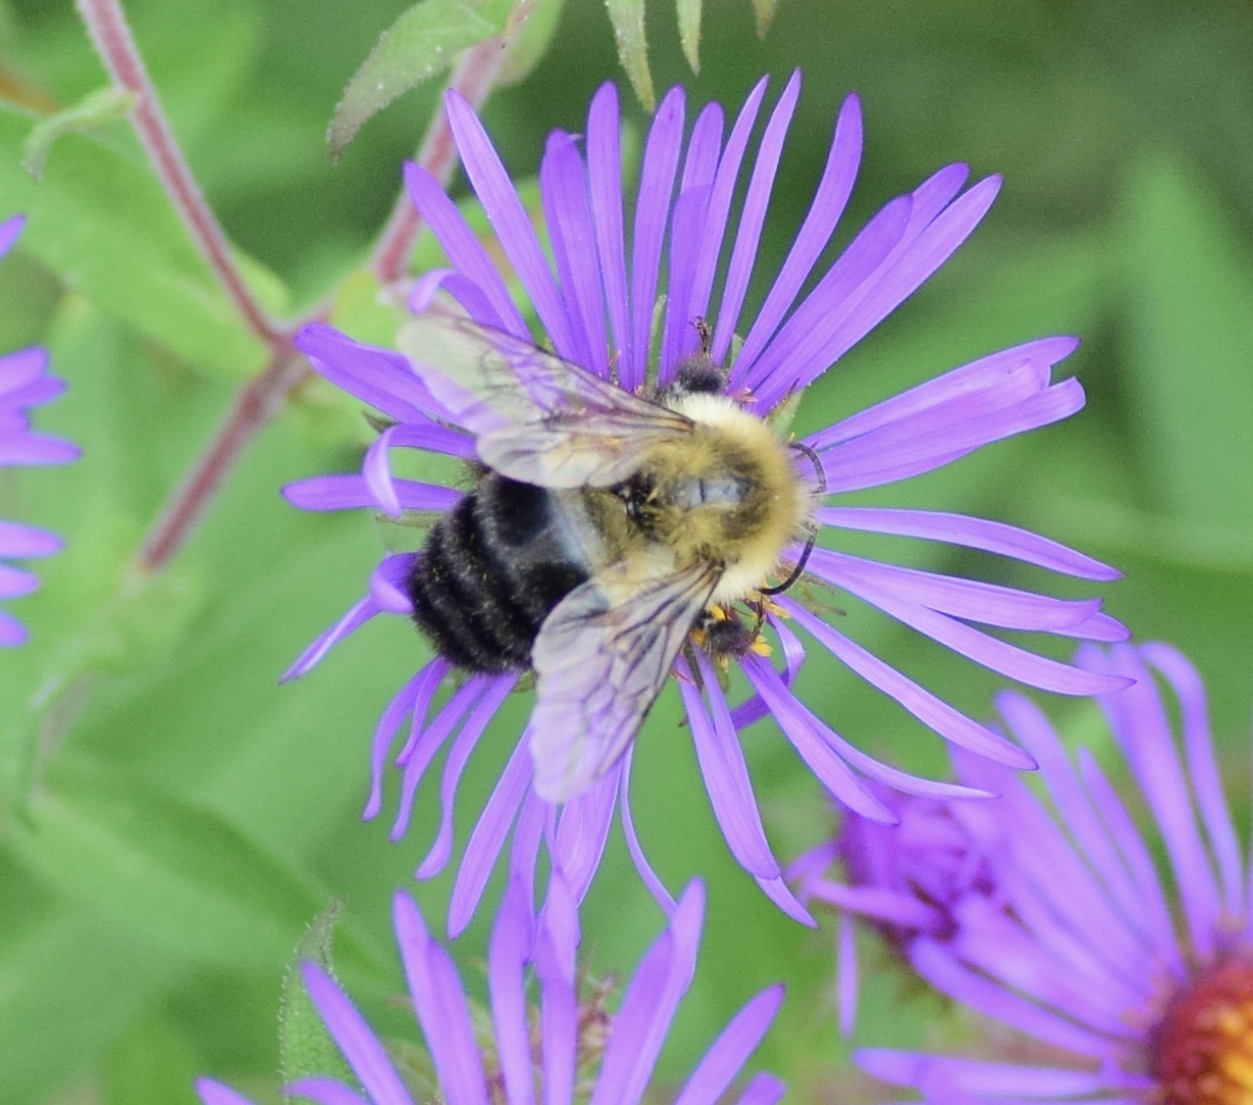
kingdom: Animalia
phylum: Arthropoda
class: Insecta
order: Hymenoptera
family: Apidae
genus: Bombus
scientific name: Bombus impatiens
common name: Common eastern bumble bee
